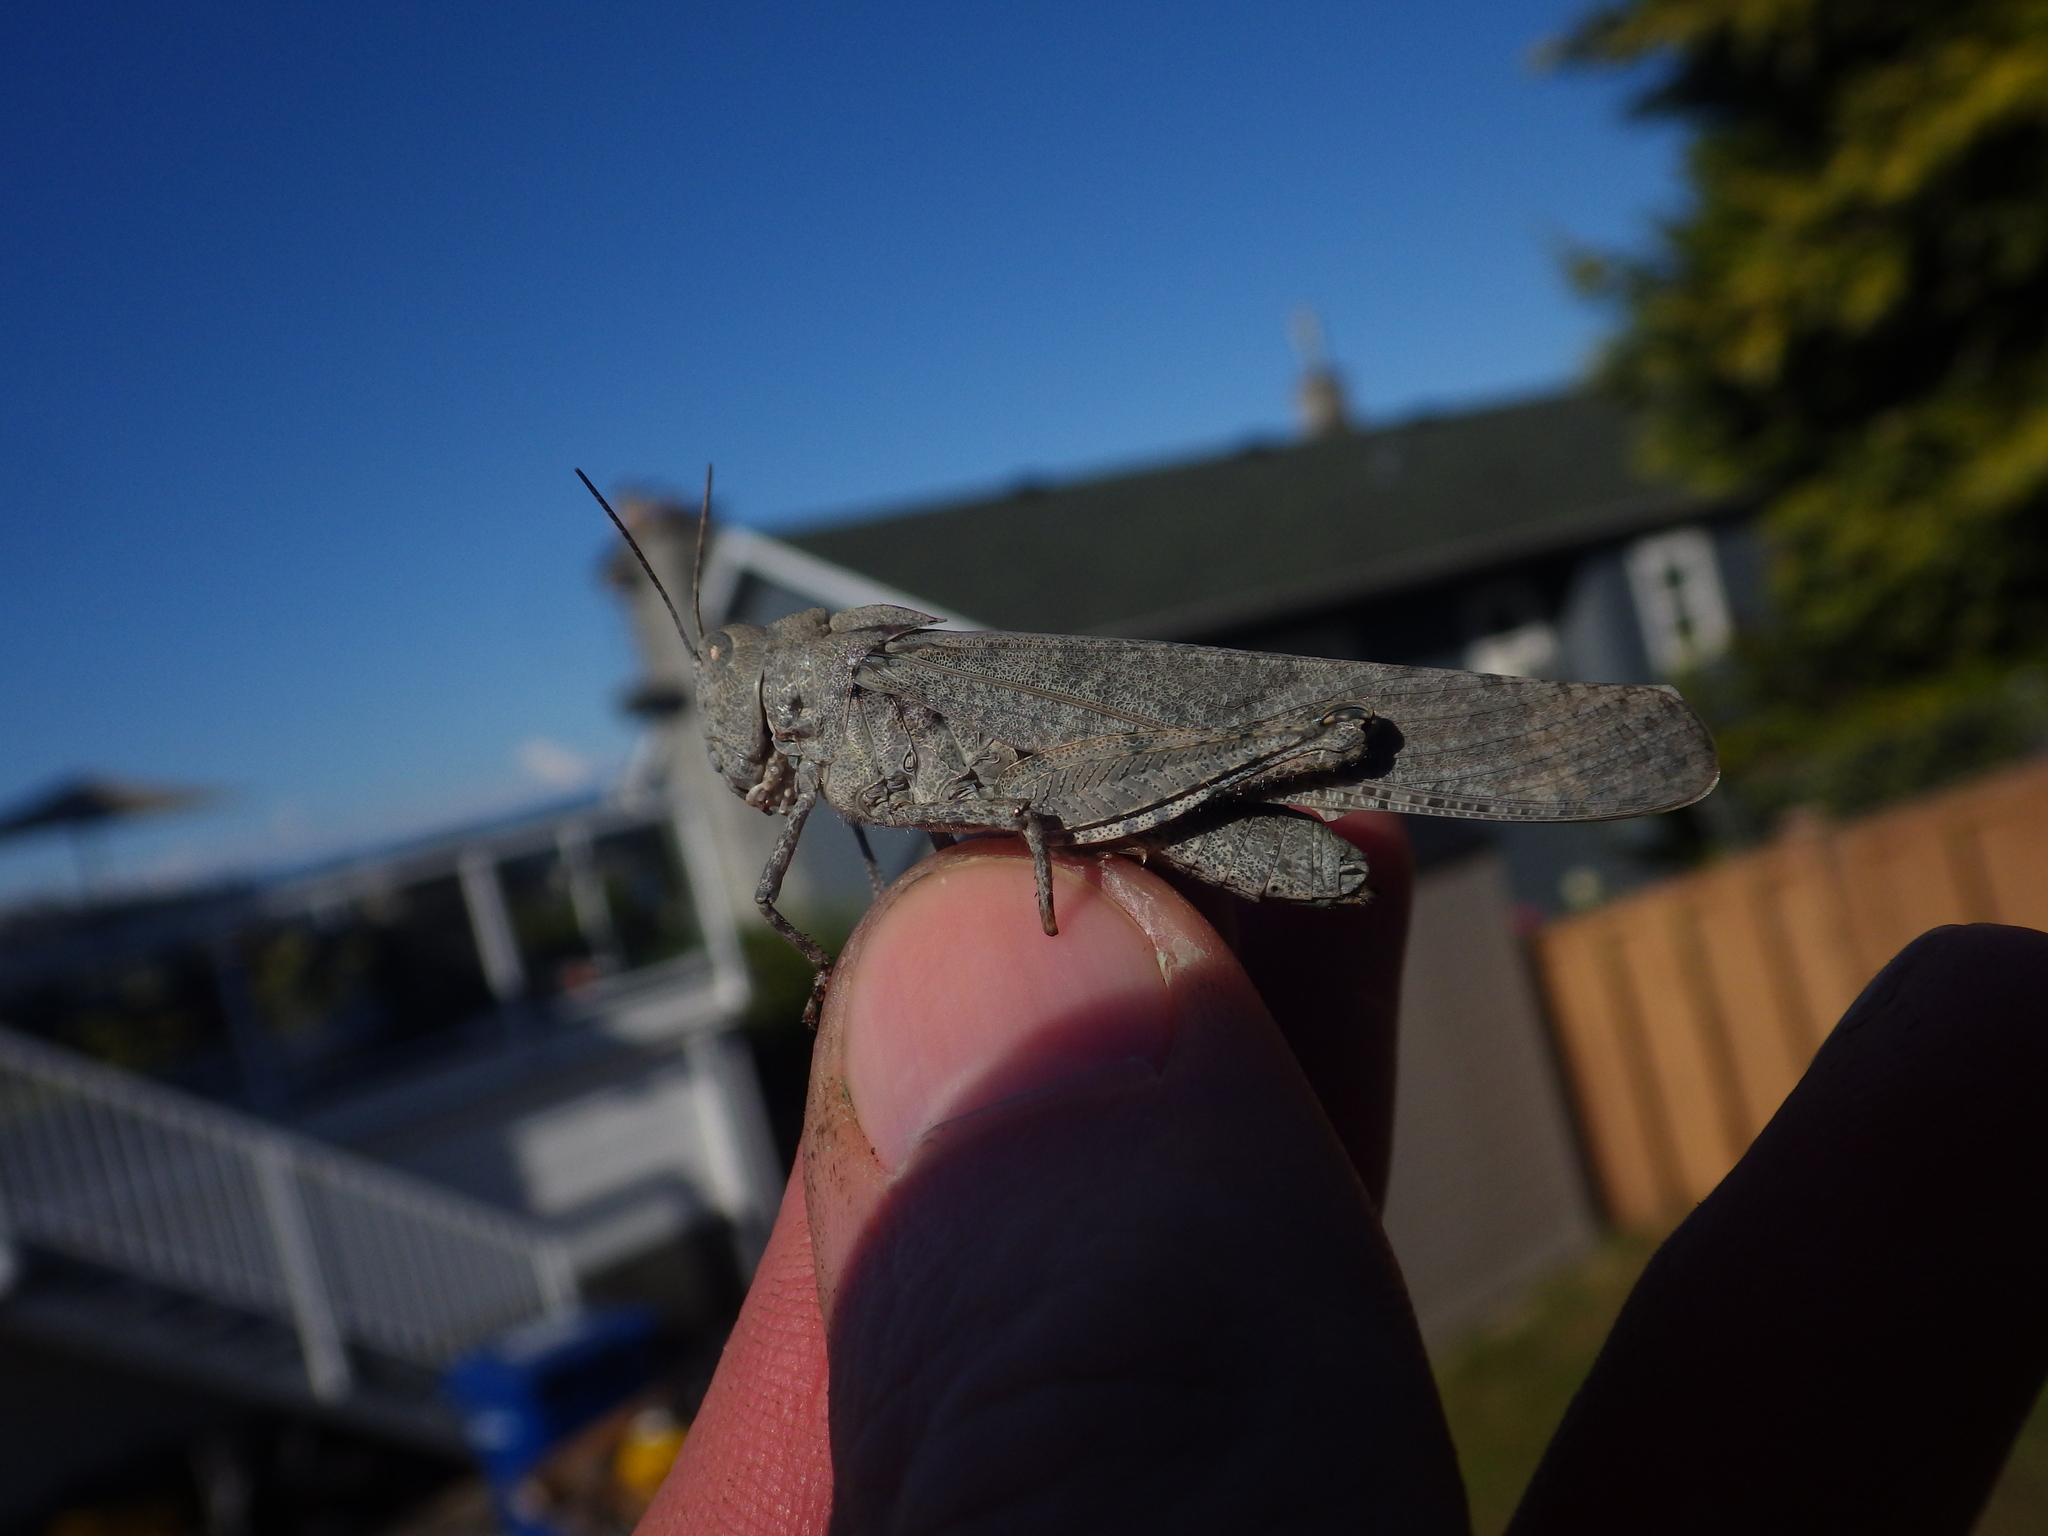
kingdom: Animalia
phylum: Arthropoda
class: Insecta
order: Orthoptera
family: Acrididae
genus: Dissosteira
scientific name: Dissosteira carolina
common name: Carolina grasshopper
